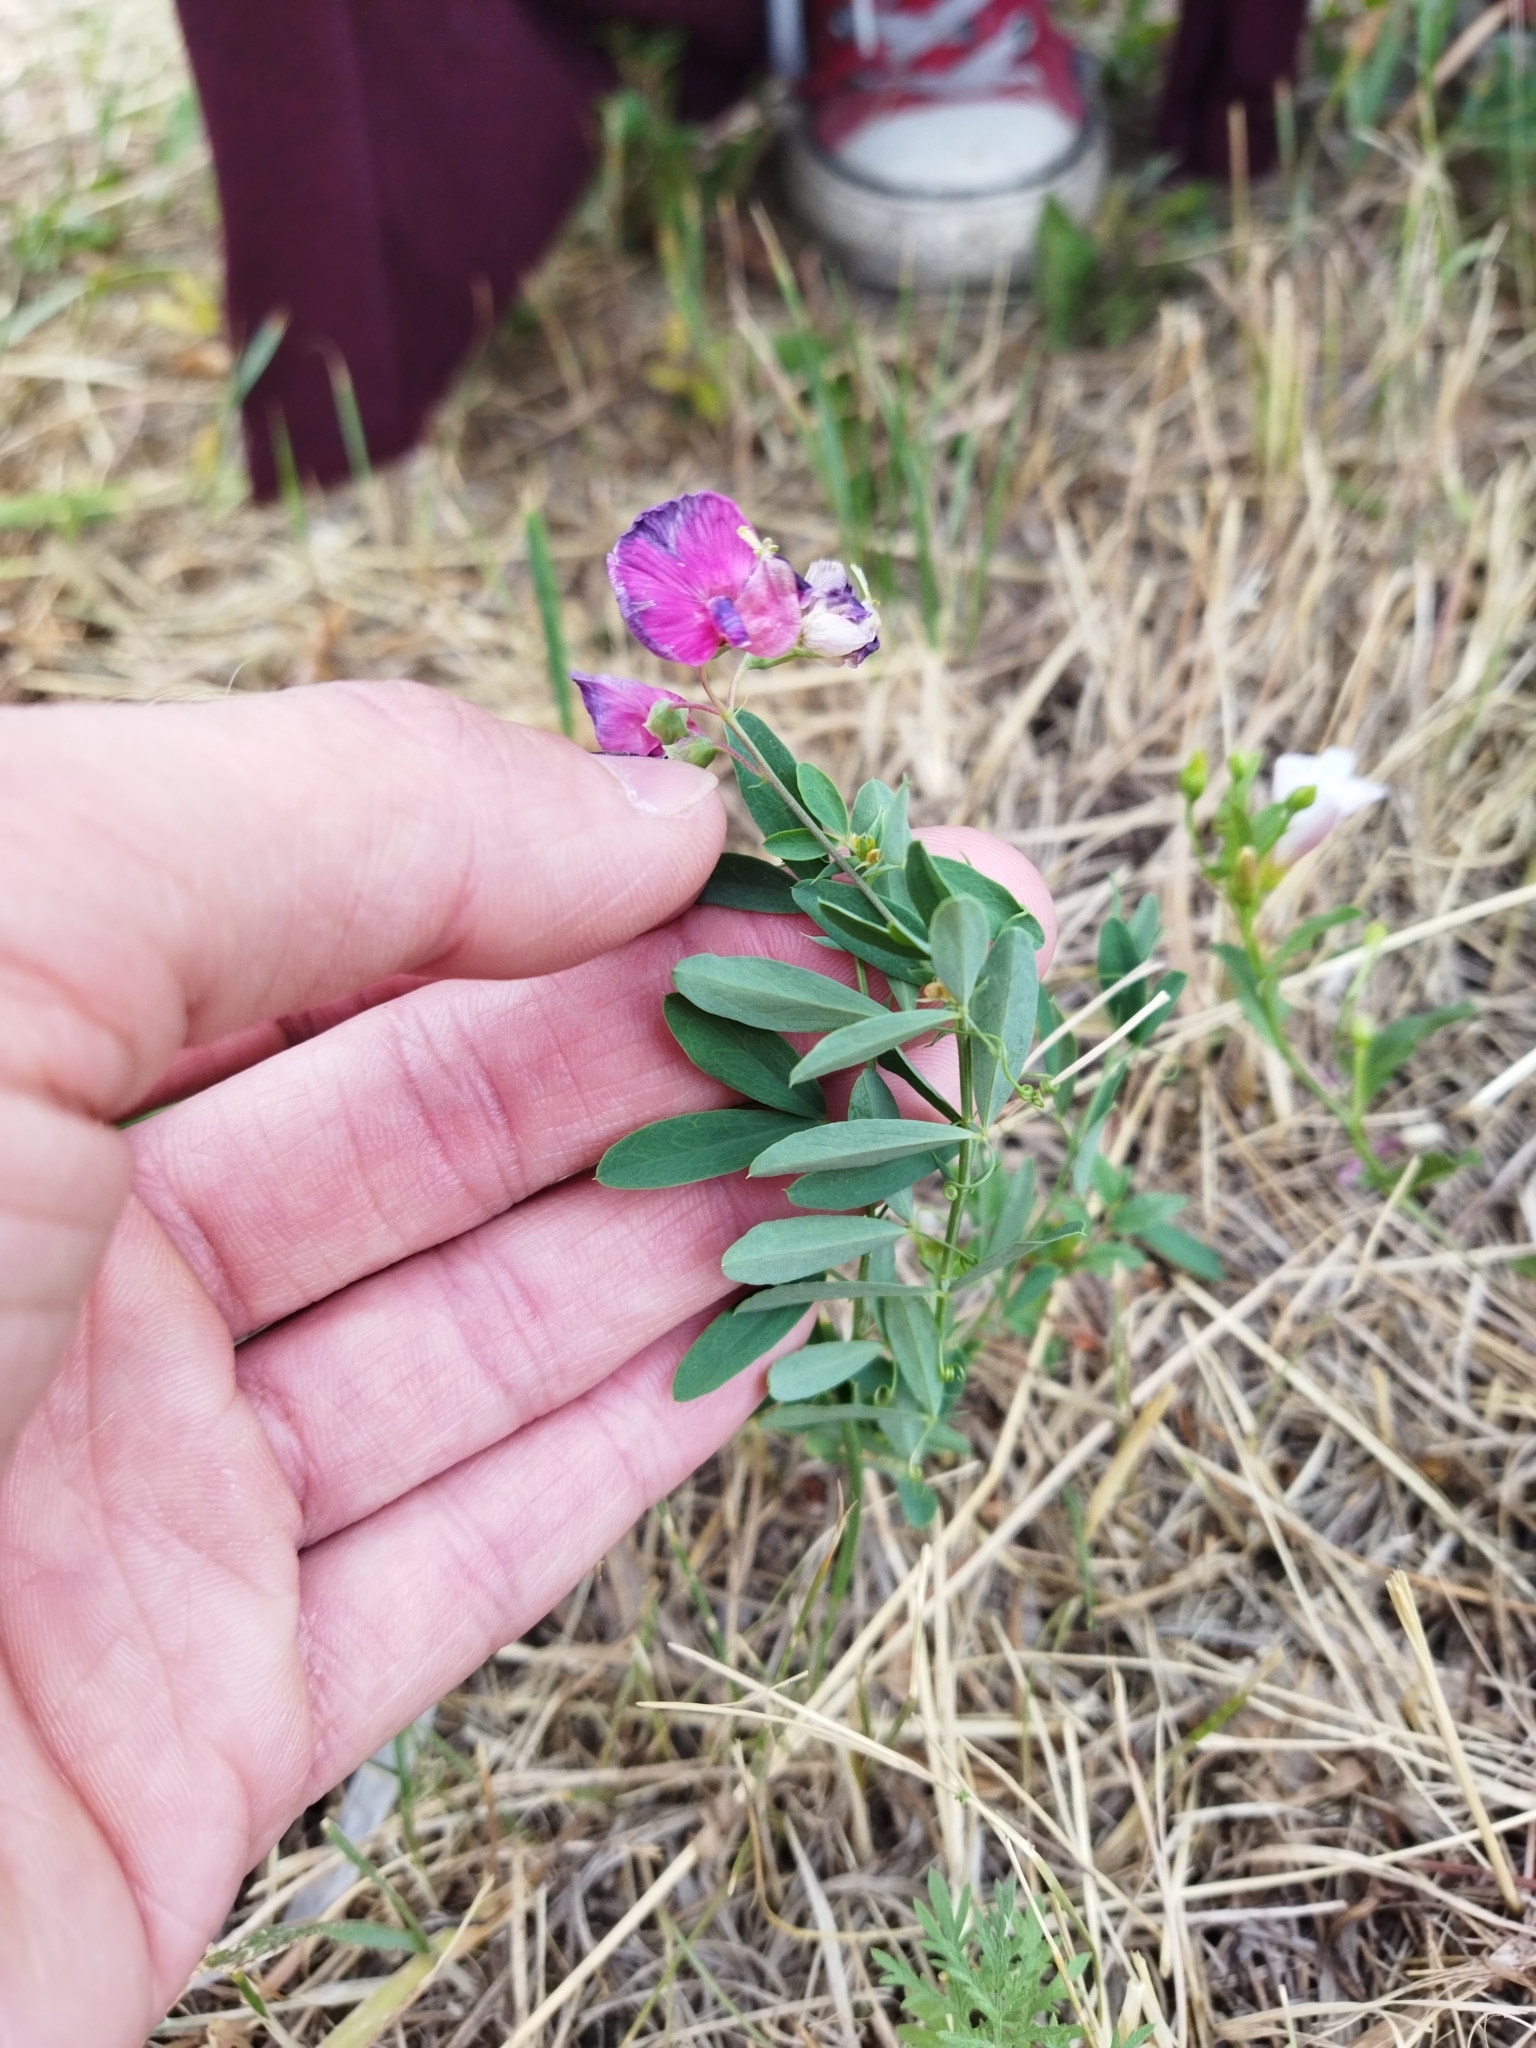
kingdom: Plantae
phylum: Tracheophyta
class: Magnoliopsida
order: Fabales
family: Fabaceae
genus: Lathyrus
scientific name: Lathyrus tuberosus
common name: Tuberous pea
